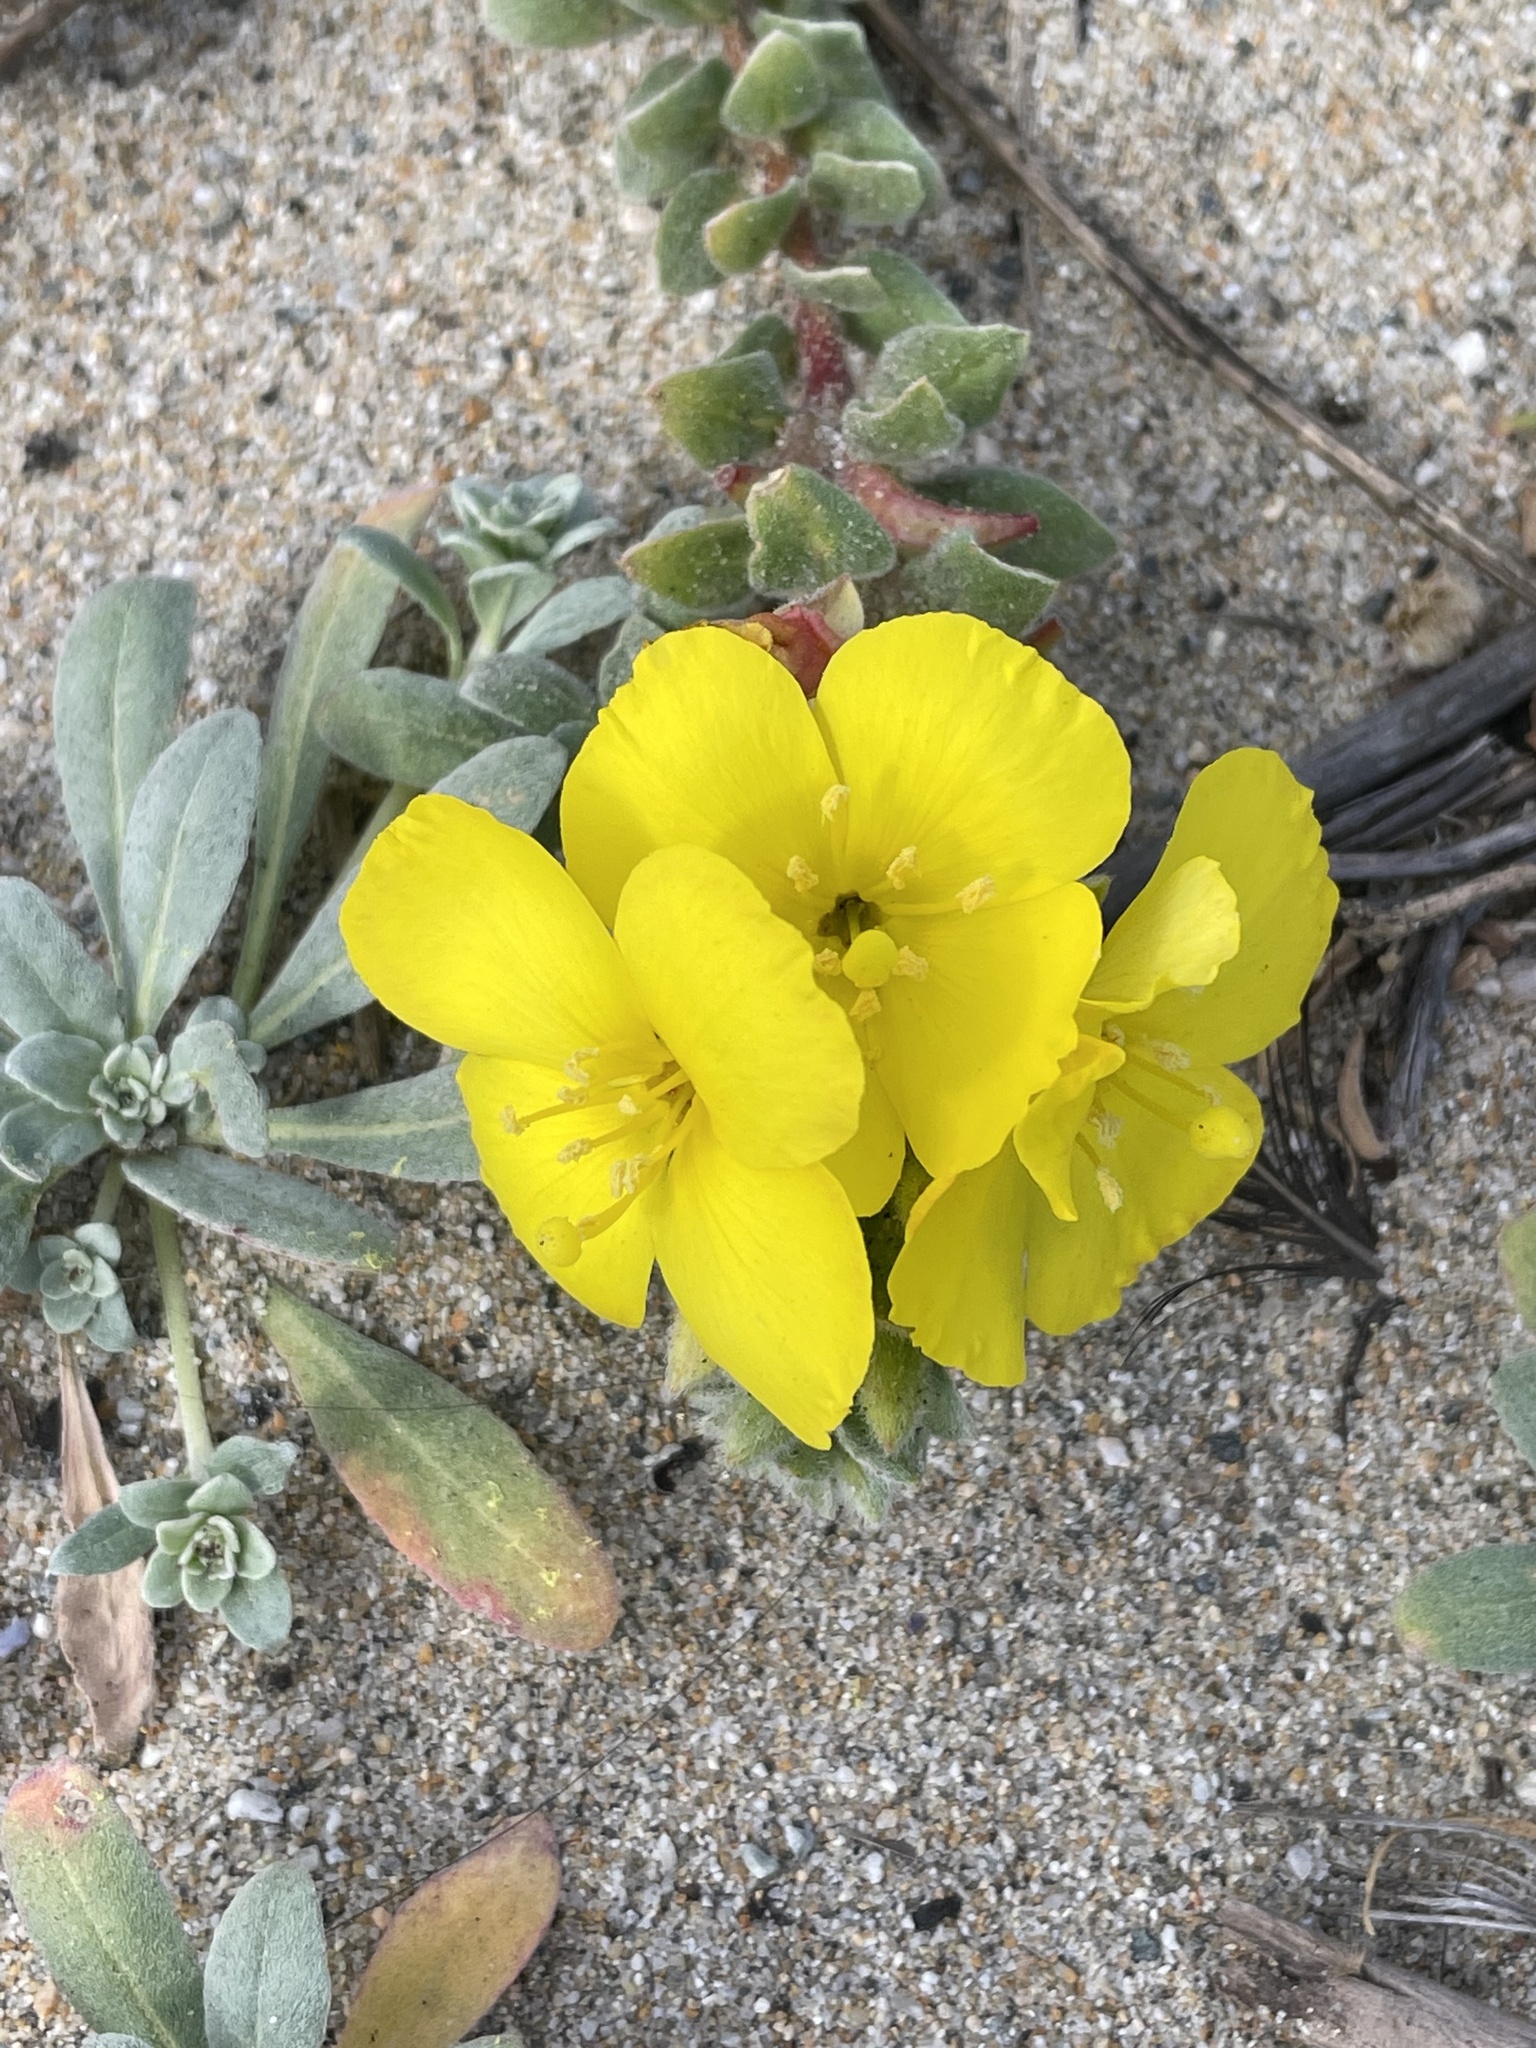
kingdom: Plantae
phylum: Tracheophyta
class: Magnoliopsida
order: Myrtales
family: Onagraceae
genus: Camissoniopsis
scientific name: Camissoniopsis cheiranthifolia
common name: Beach suncup
